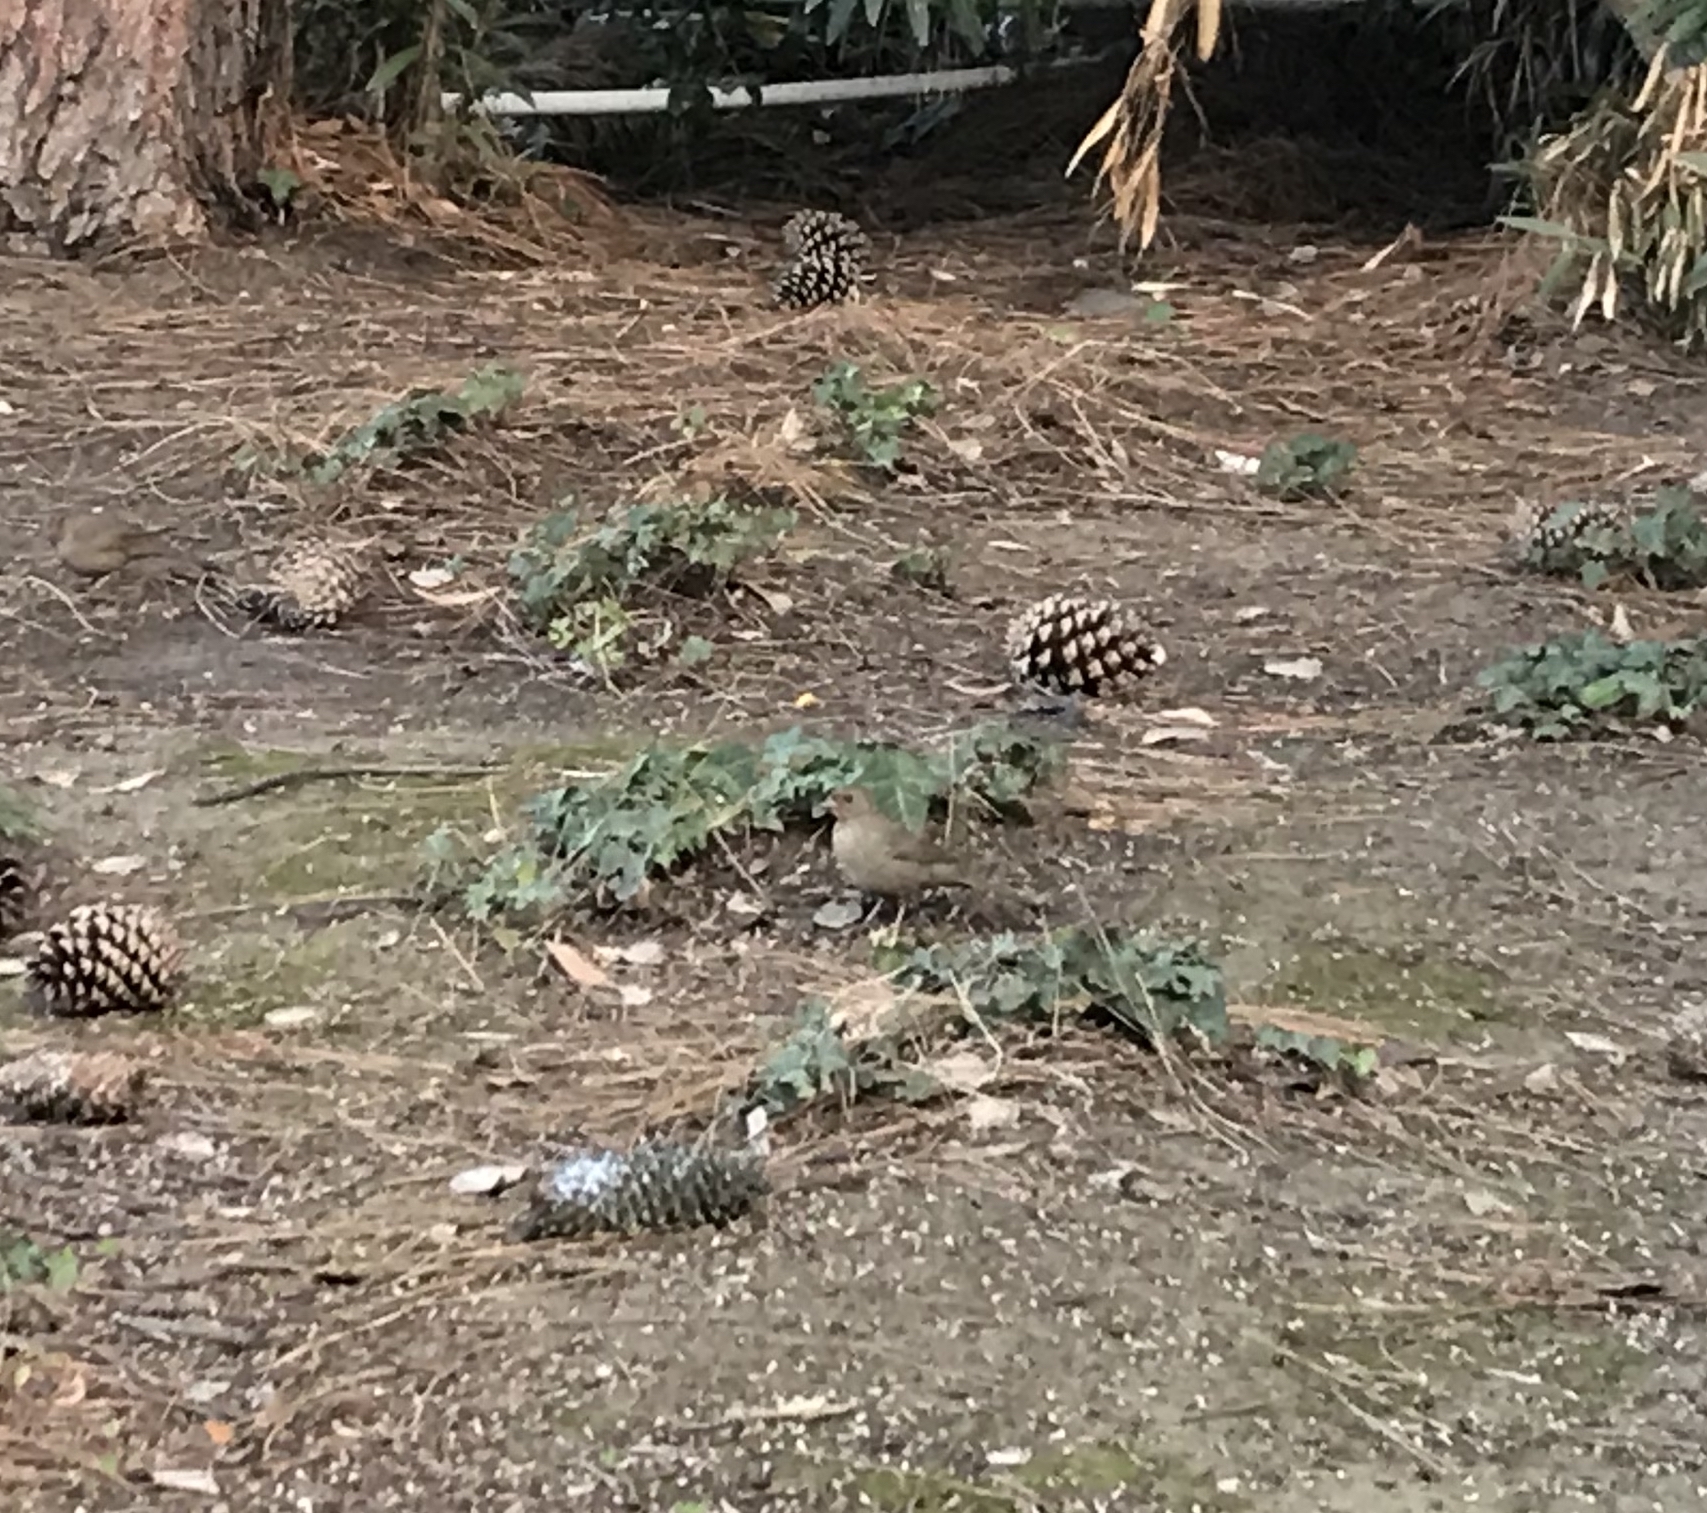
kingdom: Animalia
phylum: Chordata
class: Aves
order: Passeriformes
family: Passerellidae
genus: Melozone
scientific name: Melozone crissalis
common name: California towhee
